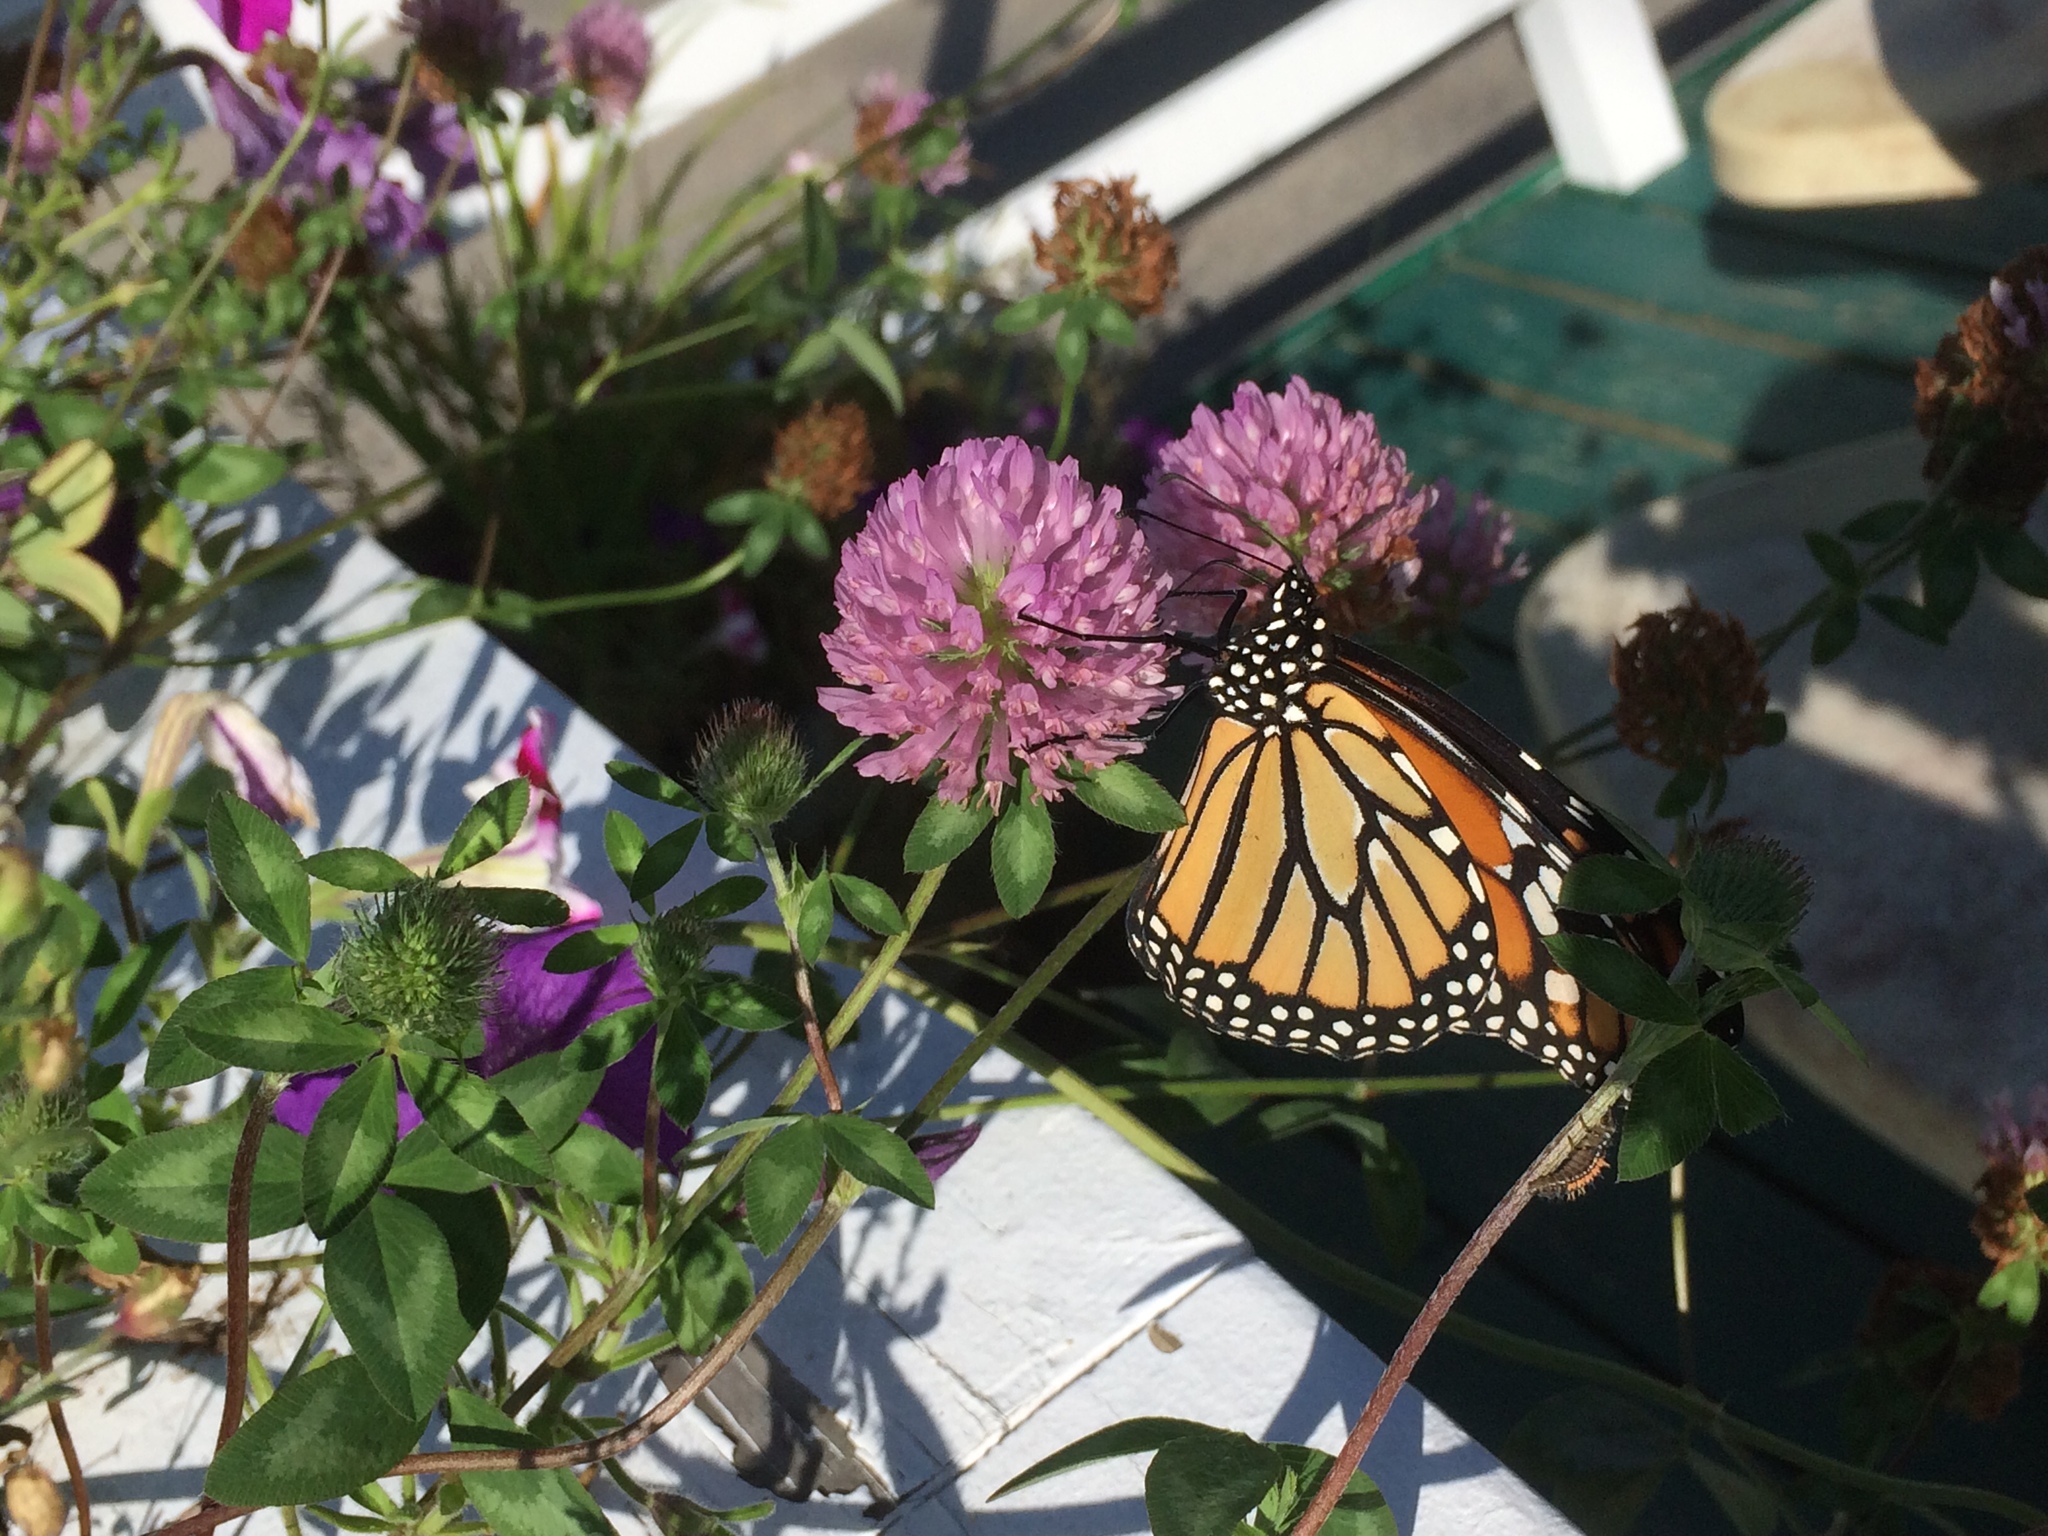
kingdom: Animalia
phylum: Arthropoda
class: Insecta
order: Lepidoptera
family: Nymphalidae
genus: Danaus
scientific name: Danaus plexippus
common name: Monarch
